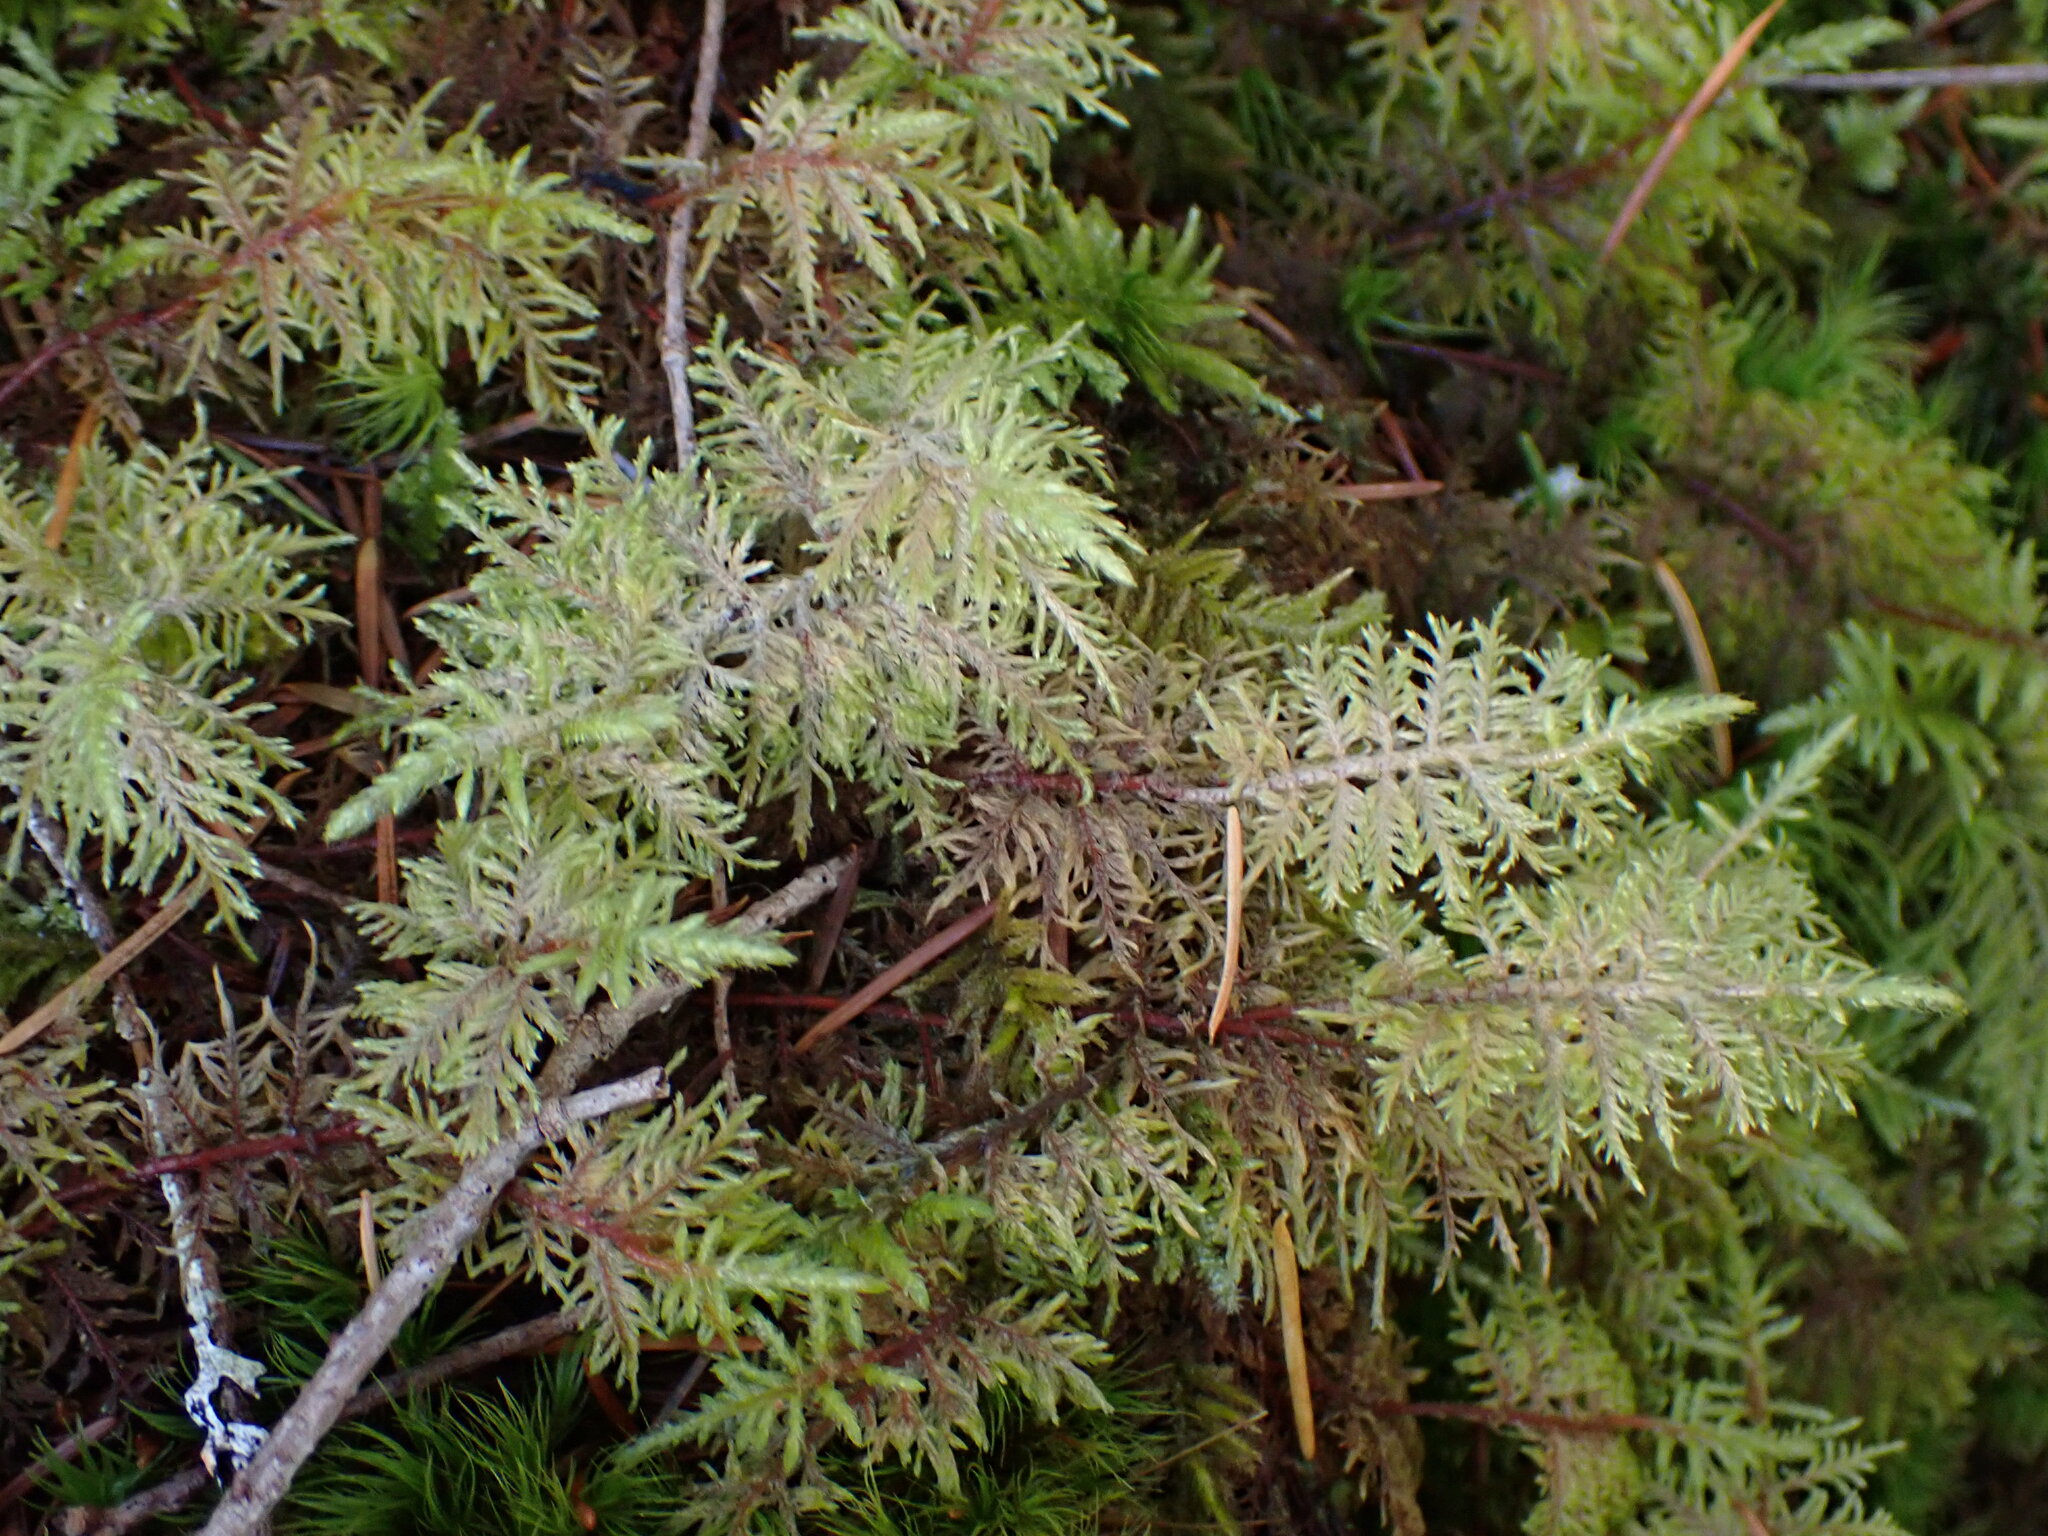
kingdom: Plantae
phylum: Bryophyta
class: Bryopsida
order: Hypnales
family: Hylocomiaceae
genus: Hylocomium
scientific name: Hylocomium splendens
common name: Stairstep moss
